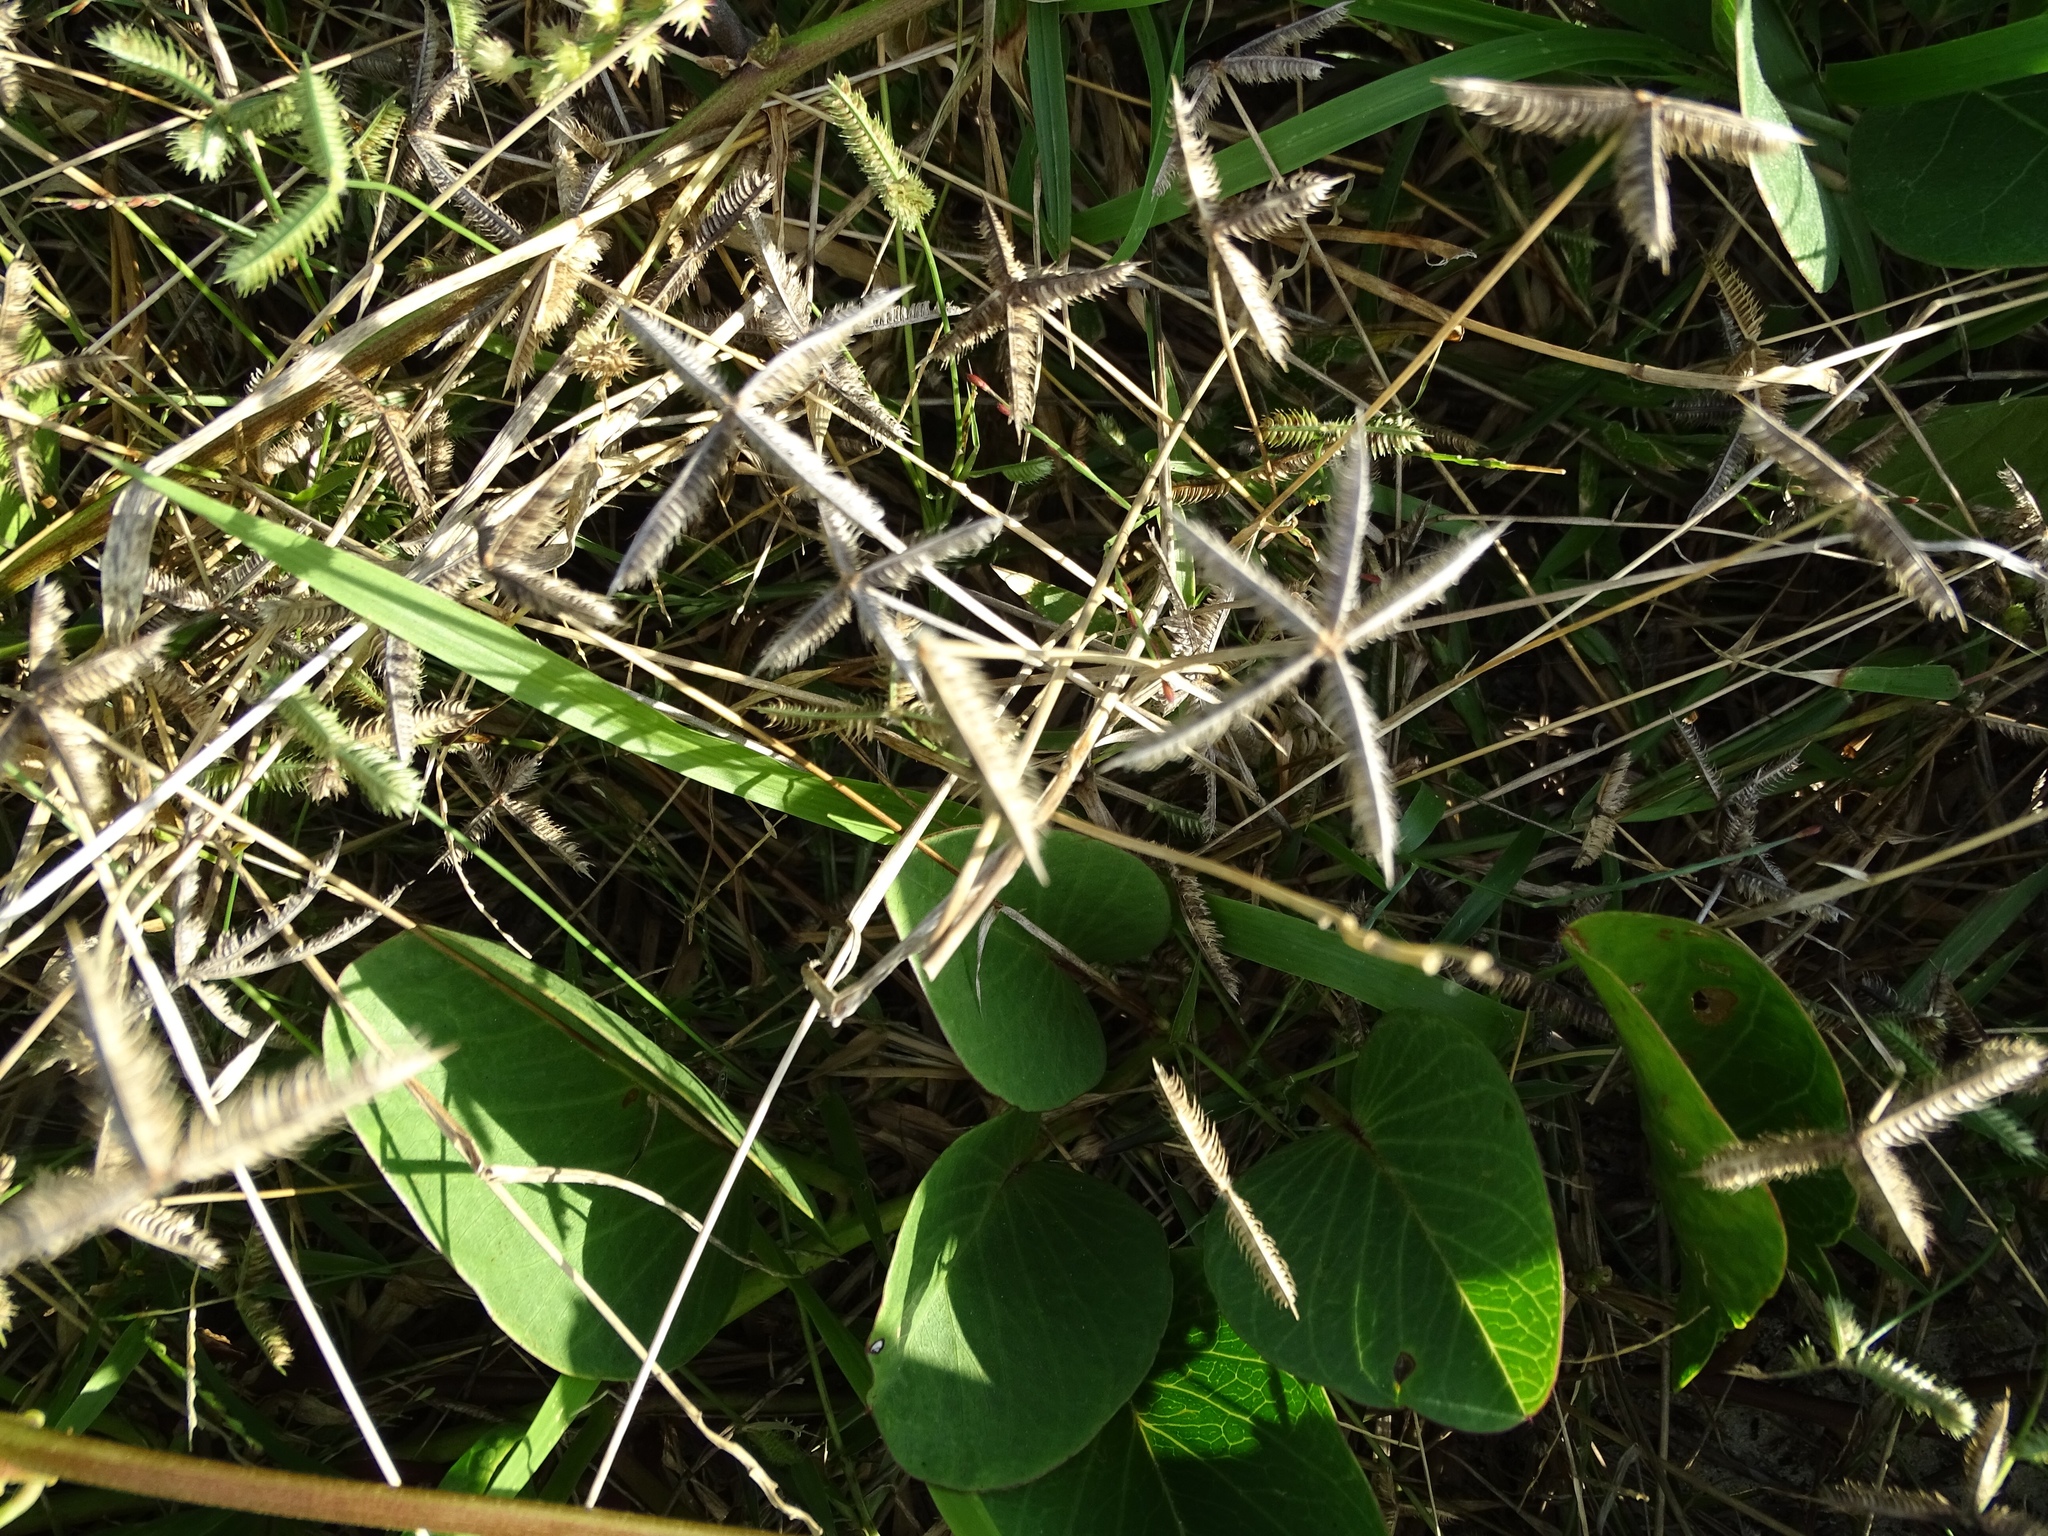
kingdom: Plantae
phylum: Tracheophyta
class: Liliopsida
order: Poales
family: Poaceae
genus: Dactyloctenium
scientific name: Dactyloctenium aegyptium
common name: Egyptian grass
